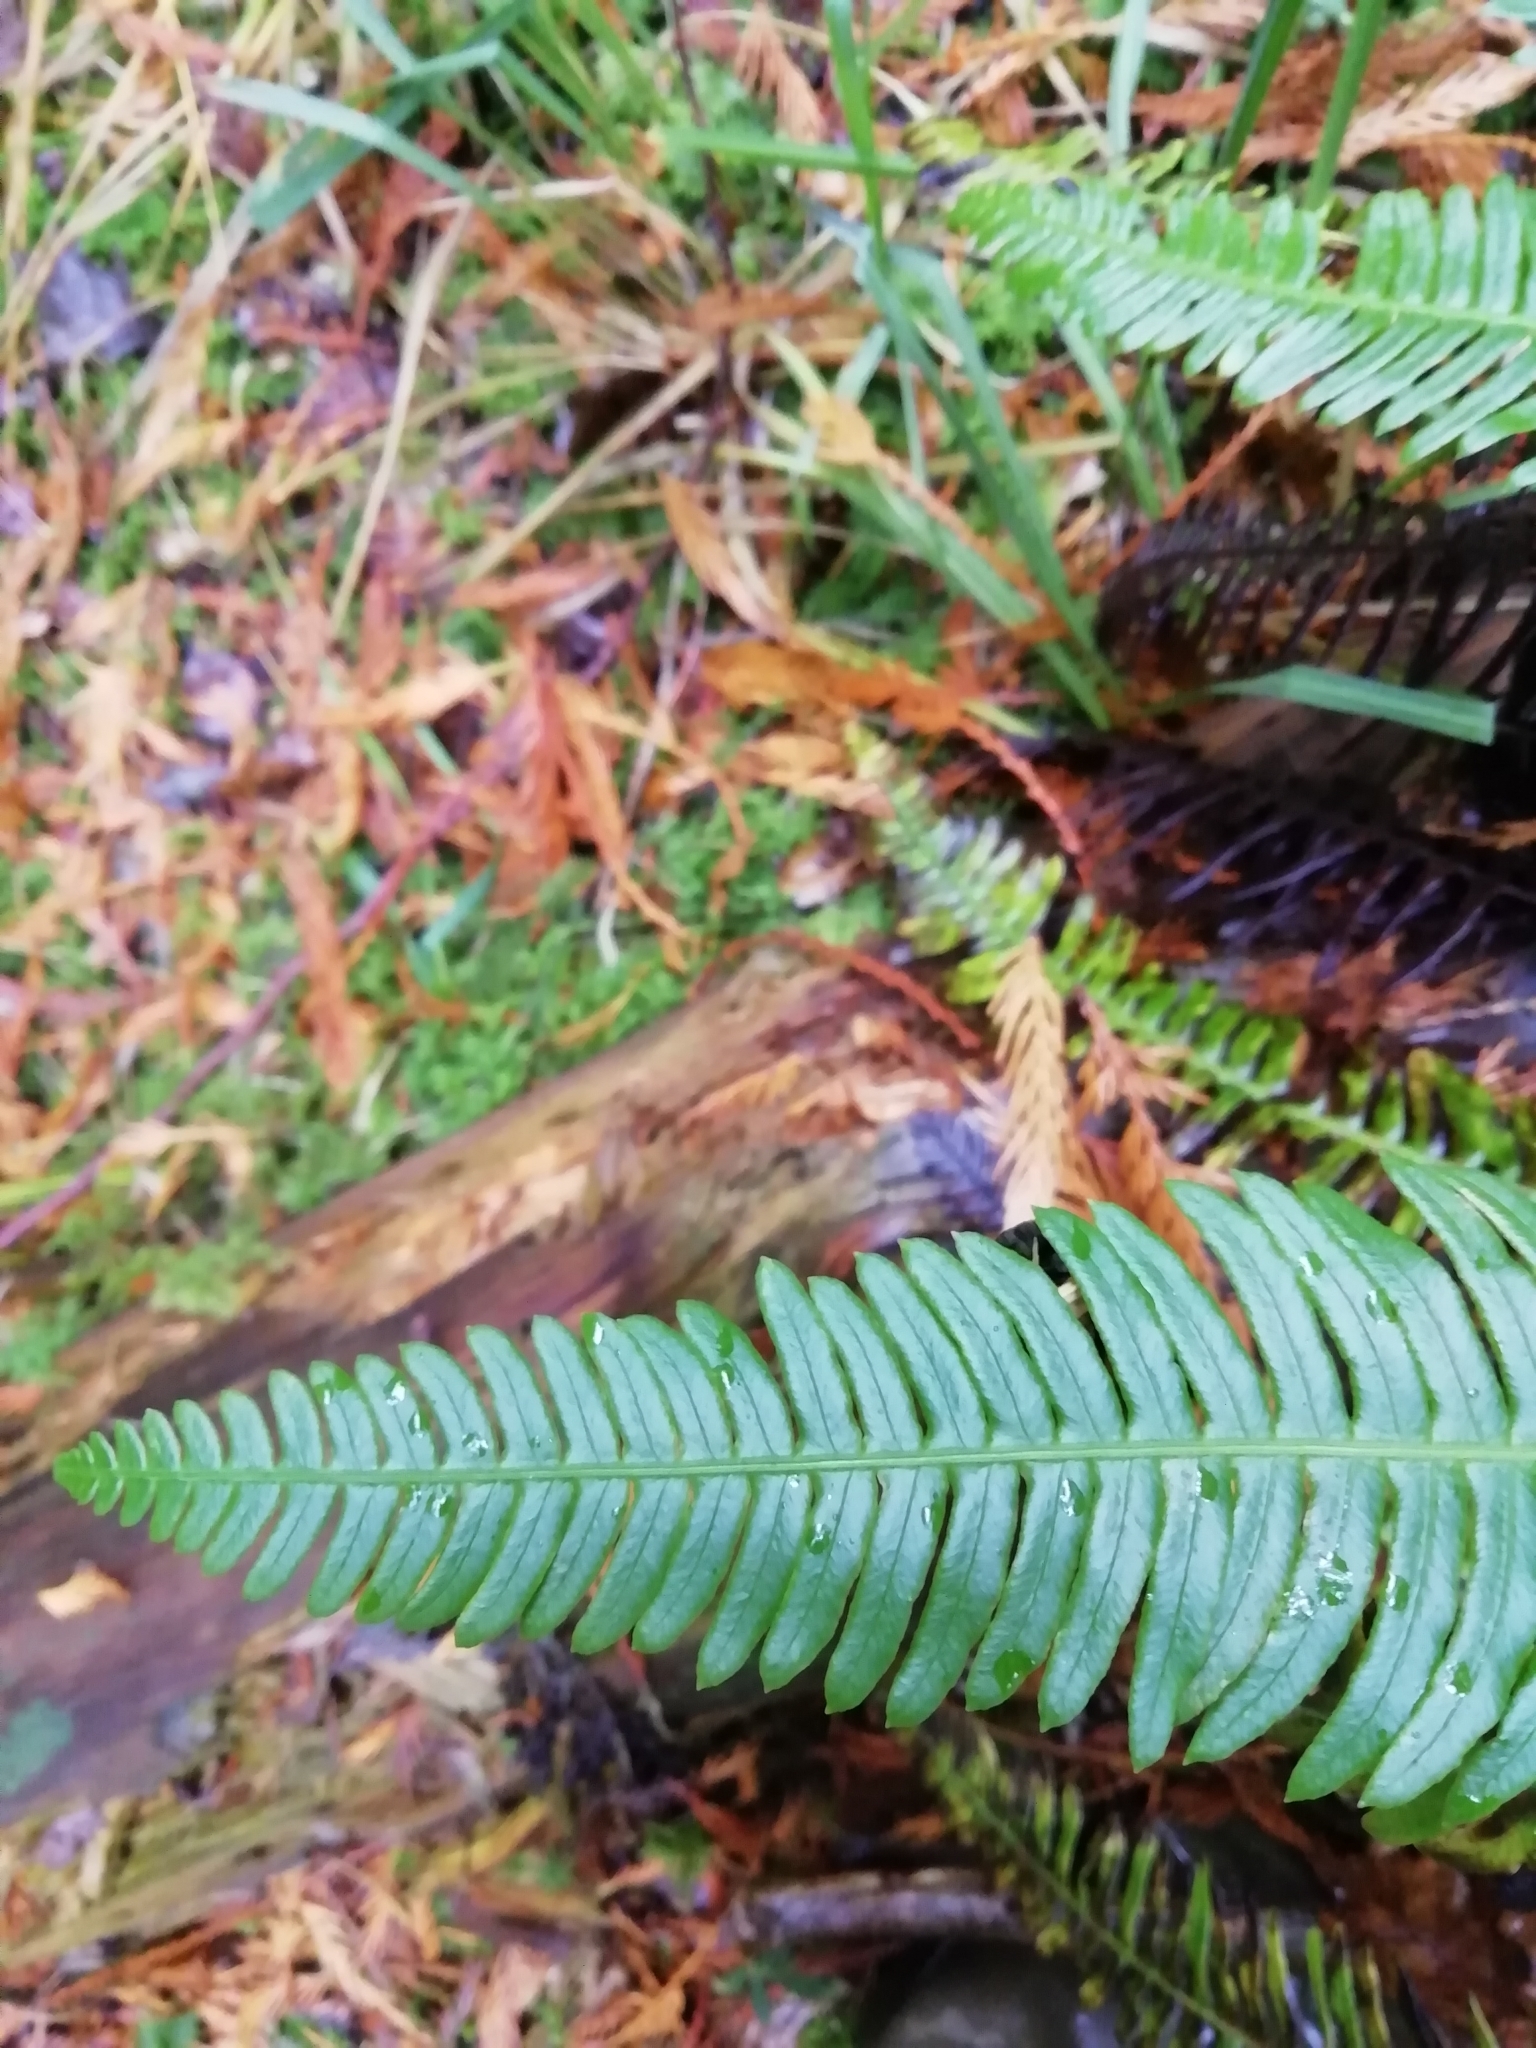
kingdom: Plantae
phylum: Tracheophyta
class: Polypodiopsida
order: Polypodiales
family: Blechnaceae
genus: Struthiopteris
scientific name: Struthiopteris spicant
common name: Deer fern
